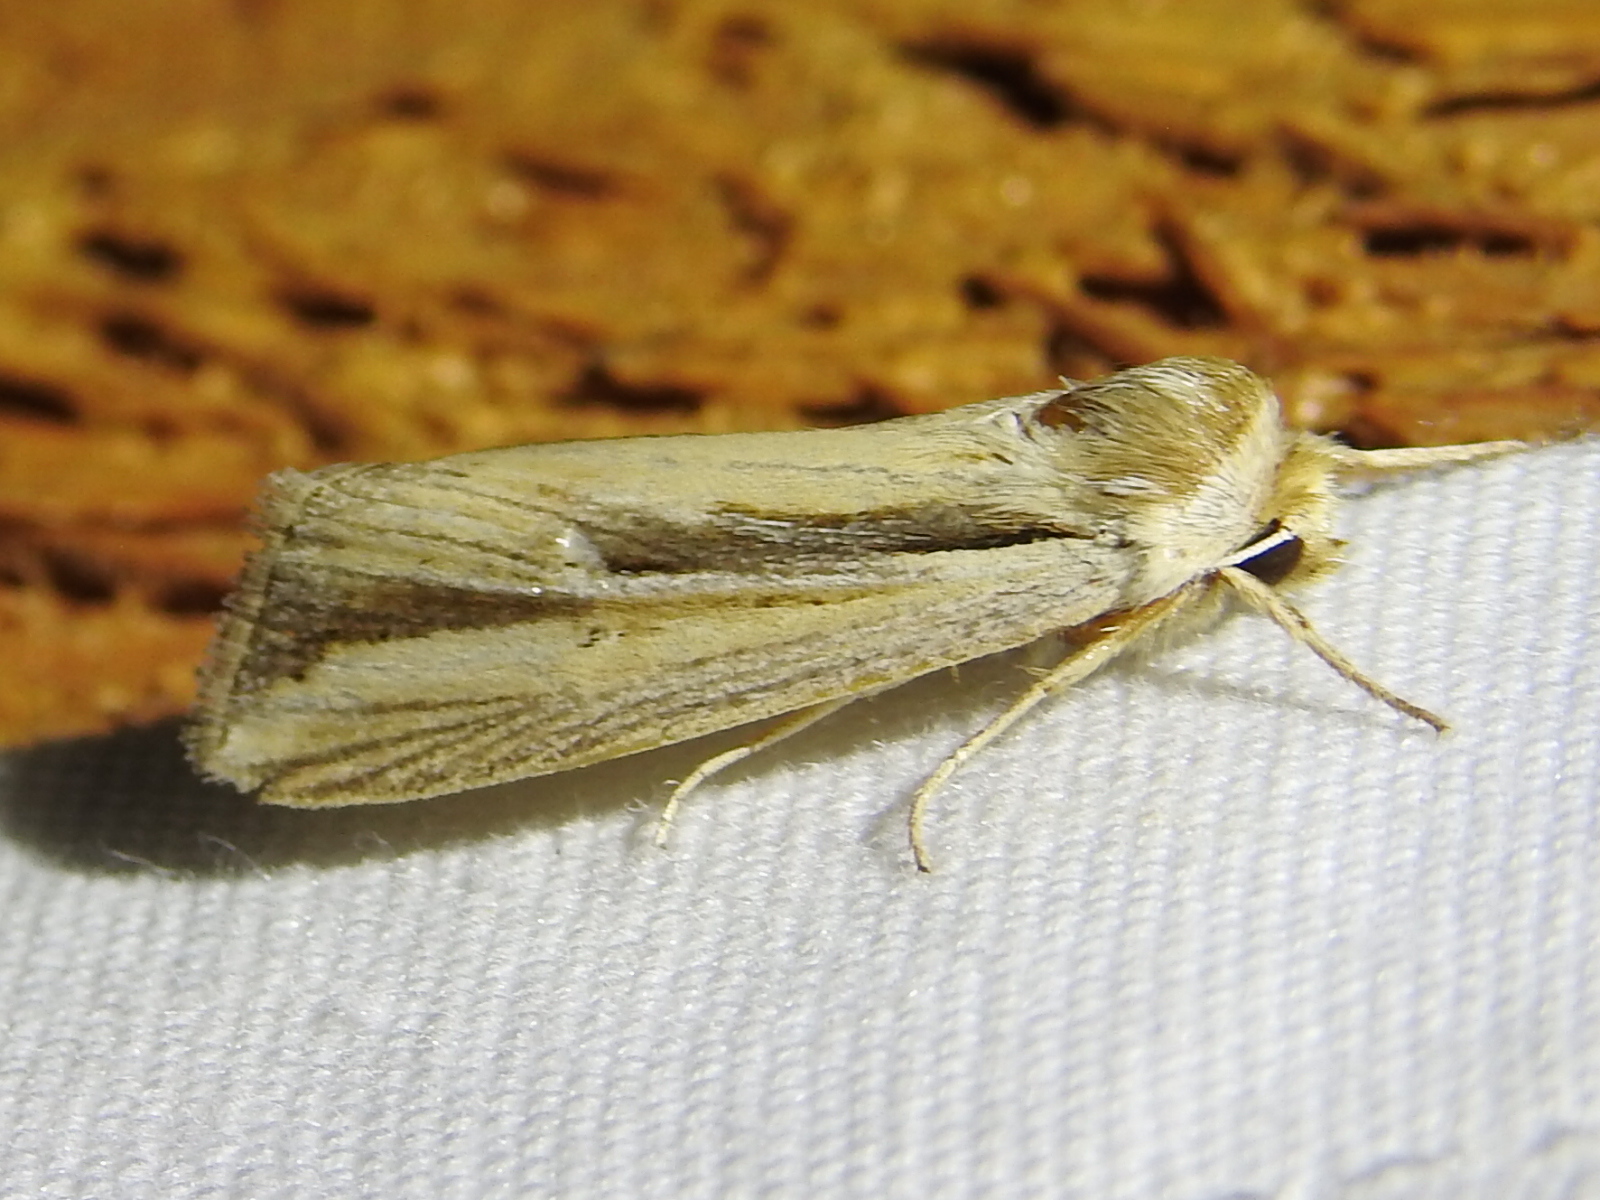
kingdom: Animalia
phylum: Arthropoda
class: Insecta
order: Lepidoptera
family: Noctuidae
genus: Dargida
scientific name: Dargida diffusa
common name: Wheat head armyworm
